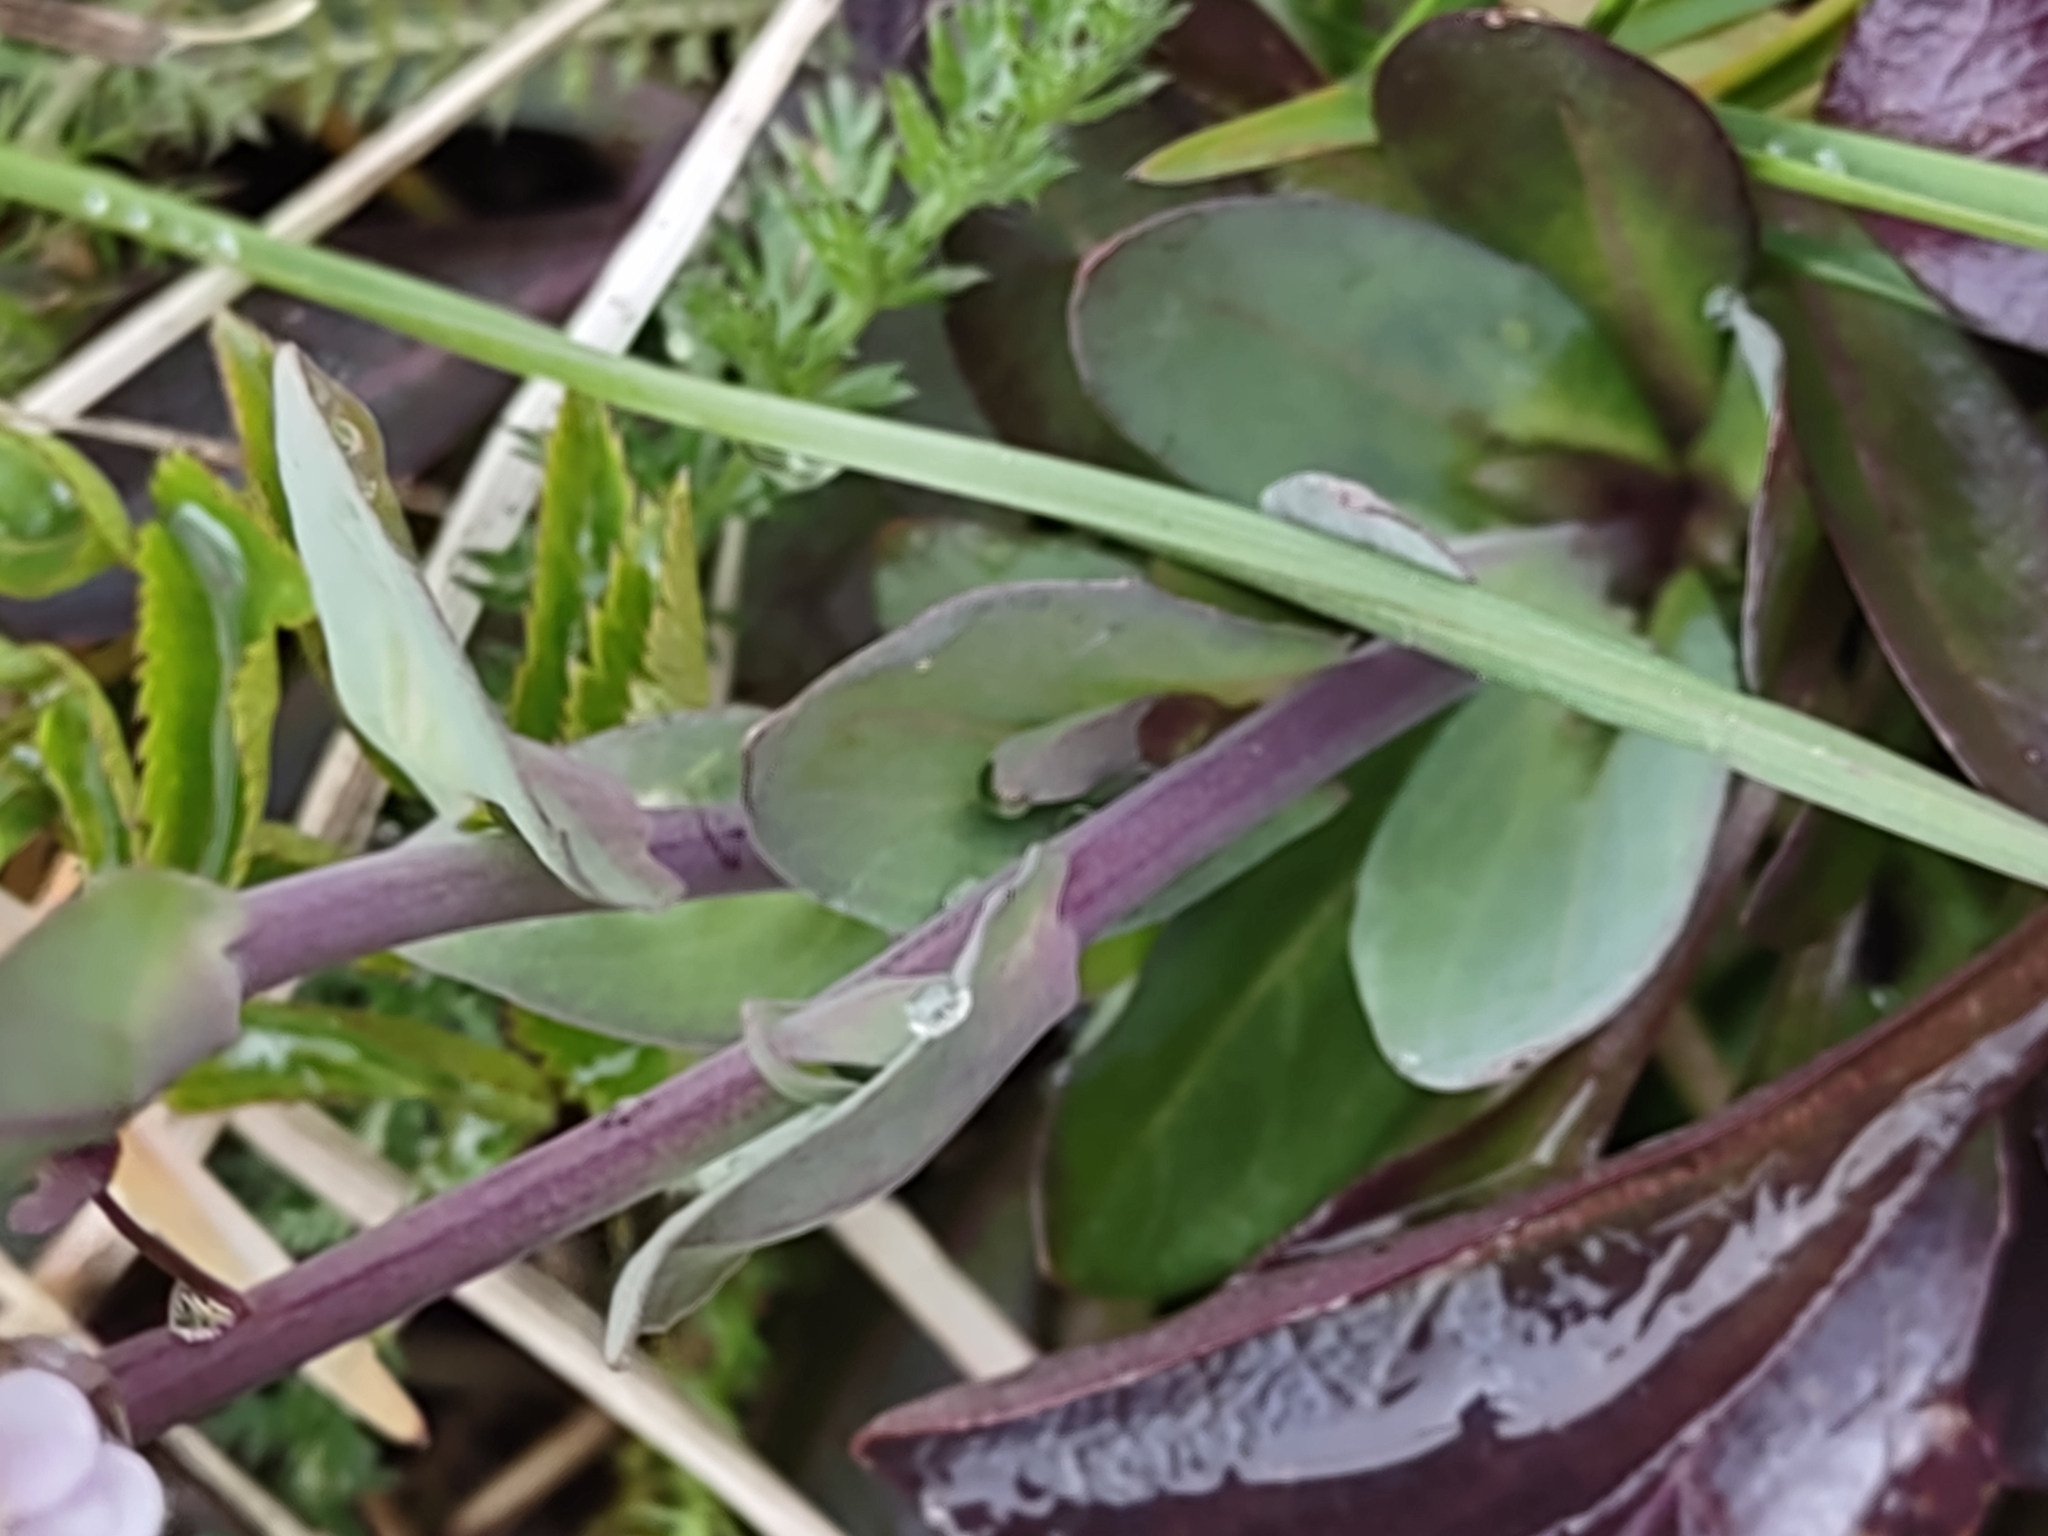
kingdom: Plantae
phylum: Tracheophyta
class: Magnoliopsida
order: Brassicales
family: Brassicaceae
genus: Noccaea
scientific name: Noccaea caerulescens
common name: Alpine pennycress
